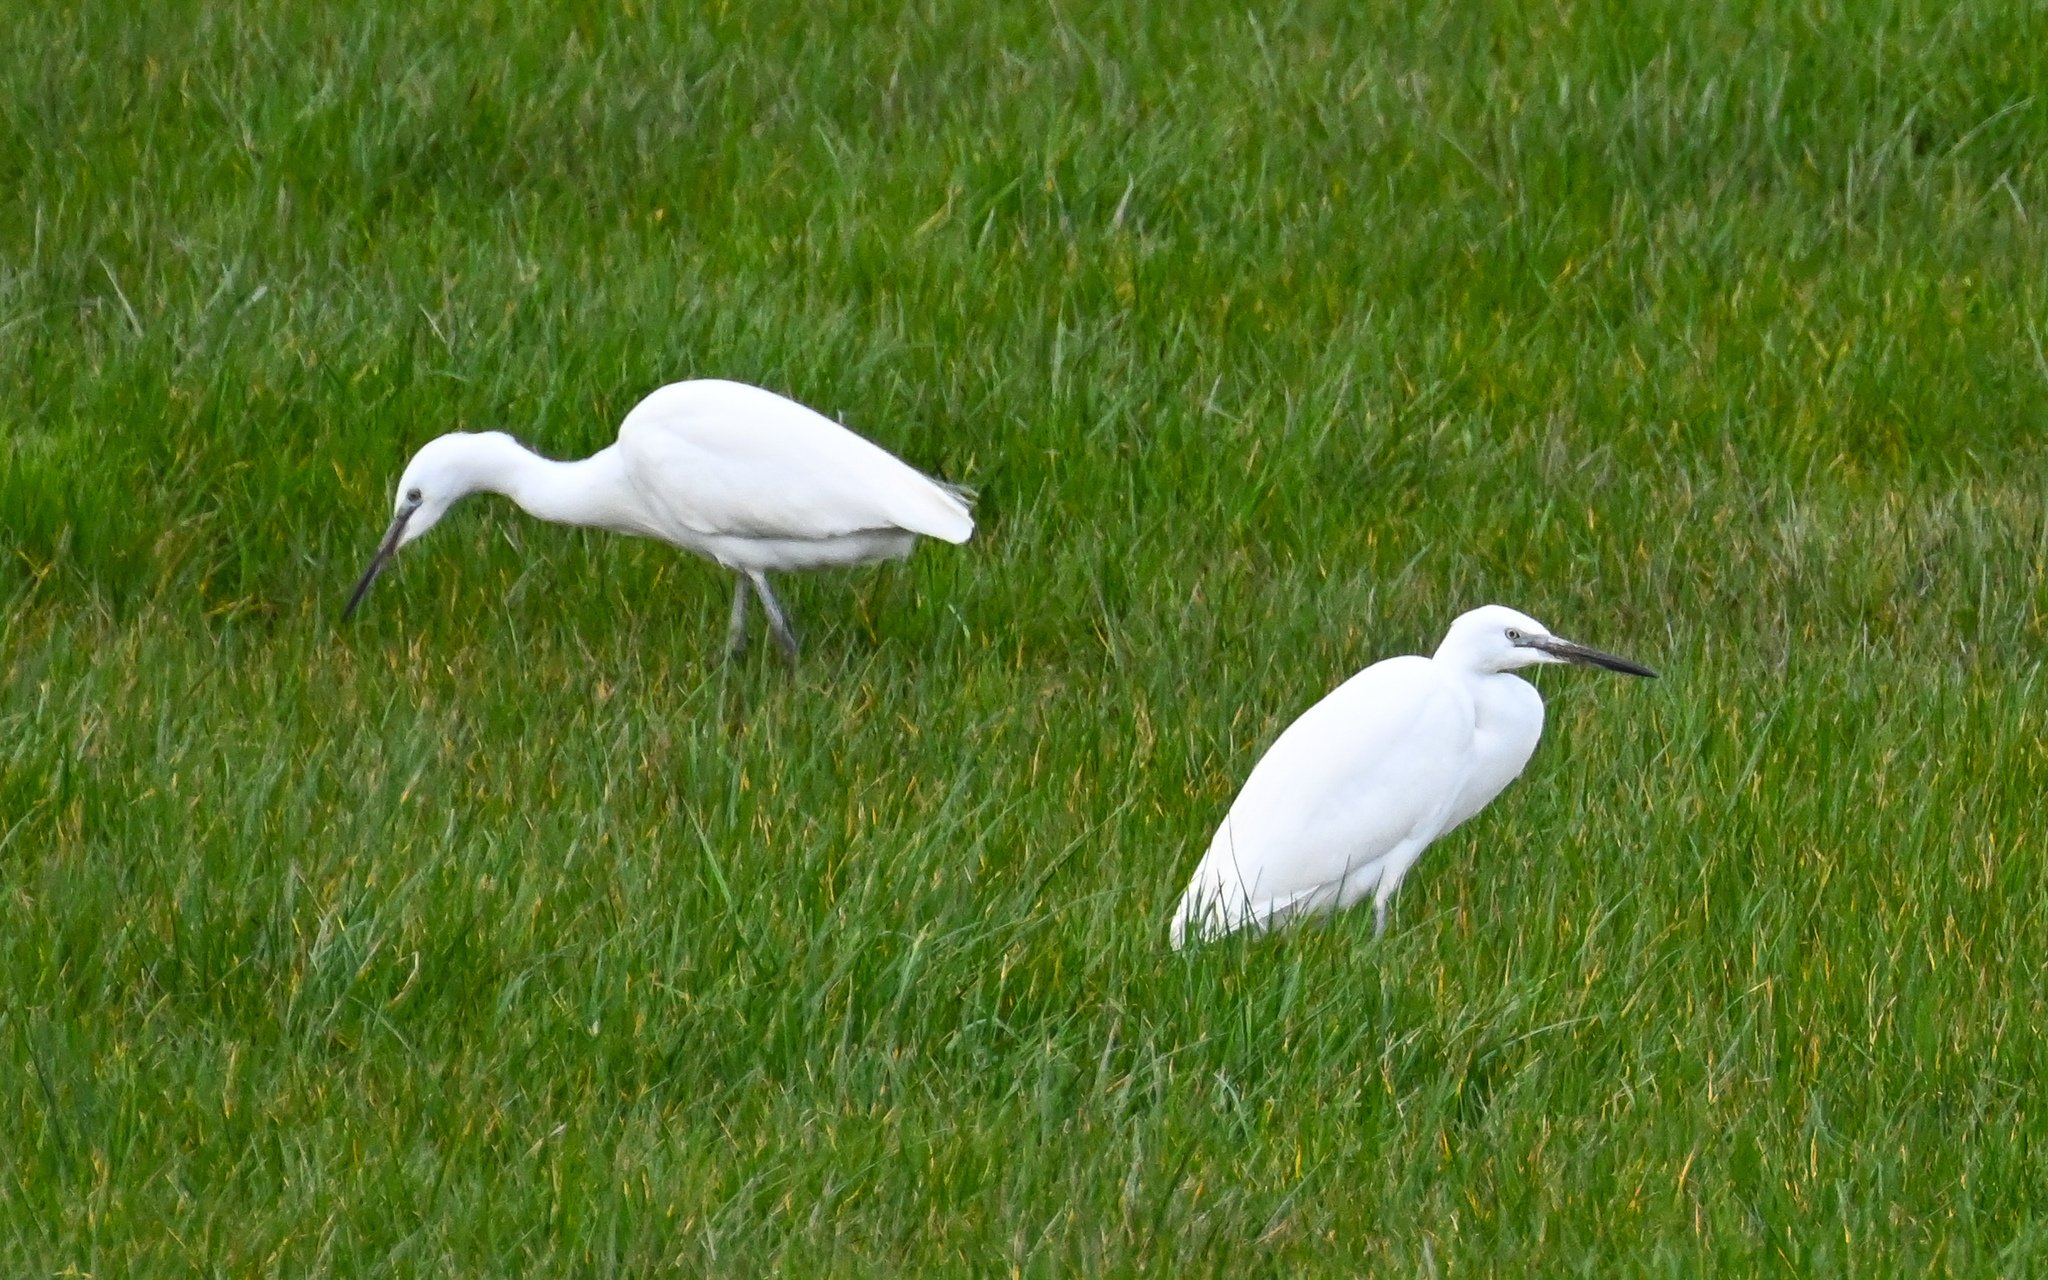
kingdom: Animalia
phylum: Chordata
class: Aves
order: Pelecaniformes
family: Ardeidae
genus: Egretta
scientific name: Egretta garzetta
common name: Little egret
